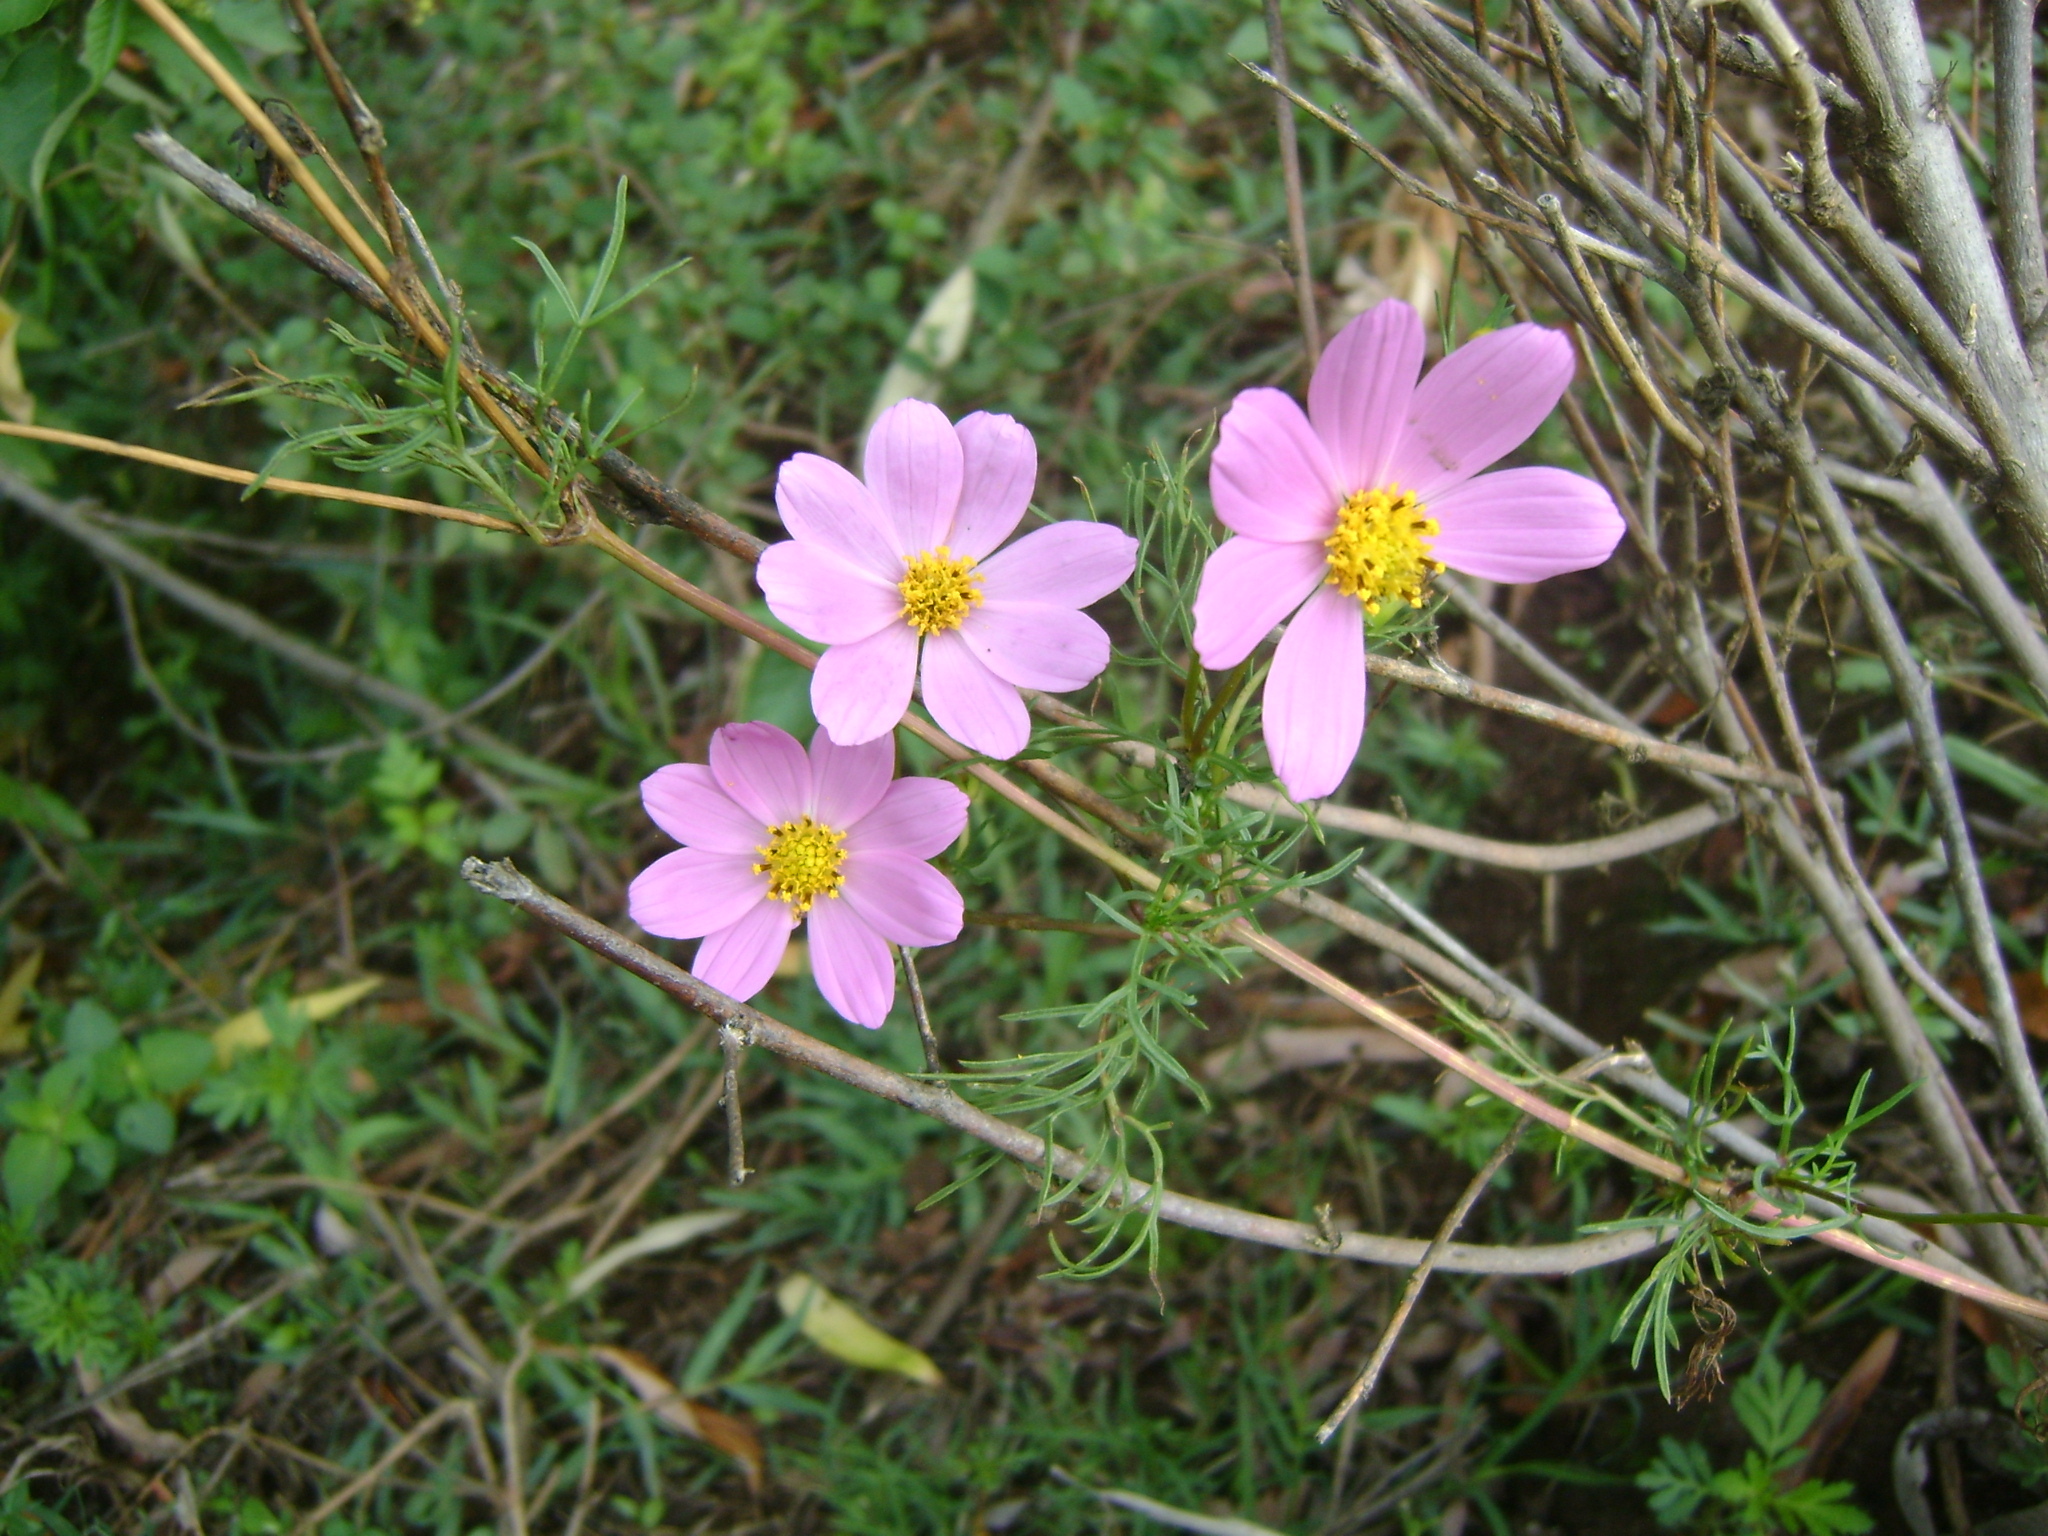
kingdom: Plantae
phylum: Tracheophyta
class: Magnoliopsida
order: Asterales
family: Asteraceae
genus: Cosmos
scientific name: Cosmos bipinnatus
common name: Garden cosmos
